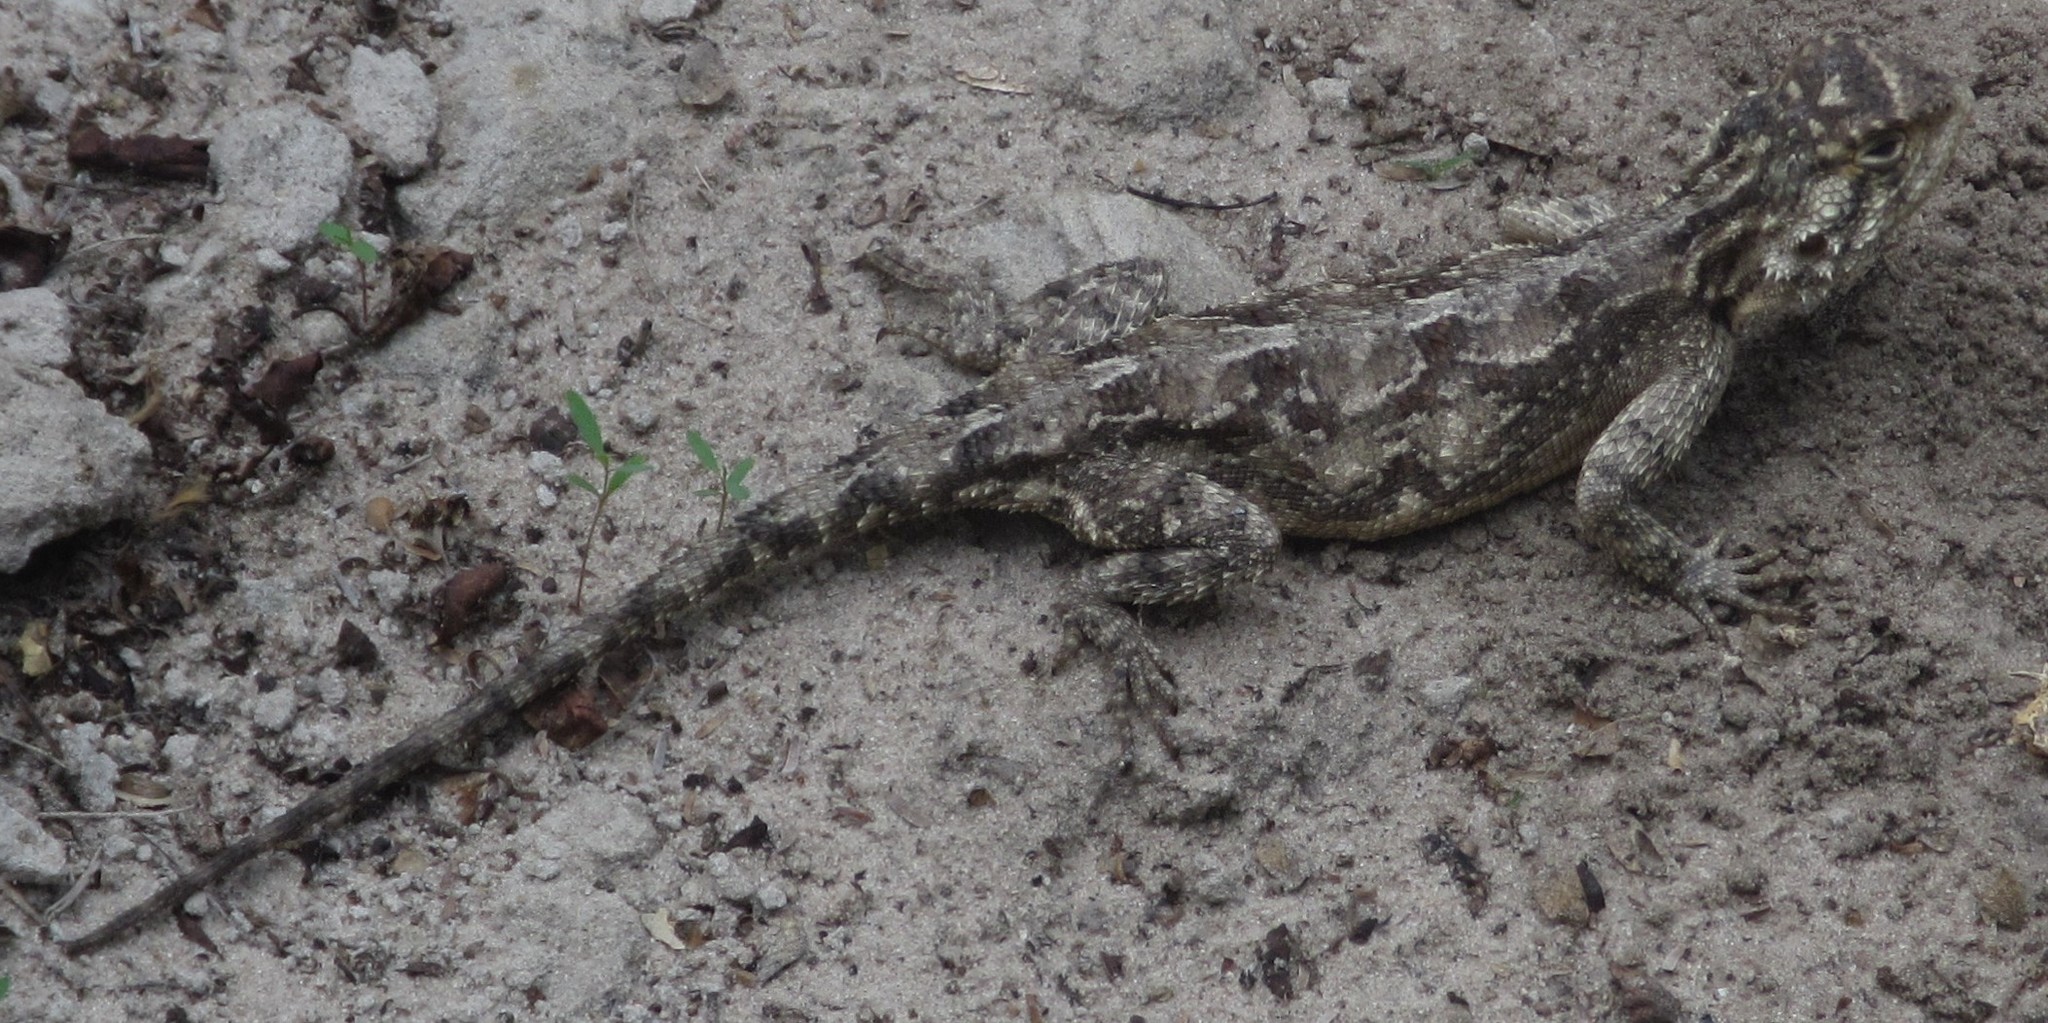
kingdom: Animalia
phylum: Chordata
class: Squamata
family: Agamidae
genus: Agama
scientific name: Agama aculeata
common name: Common ground agama
